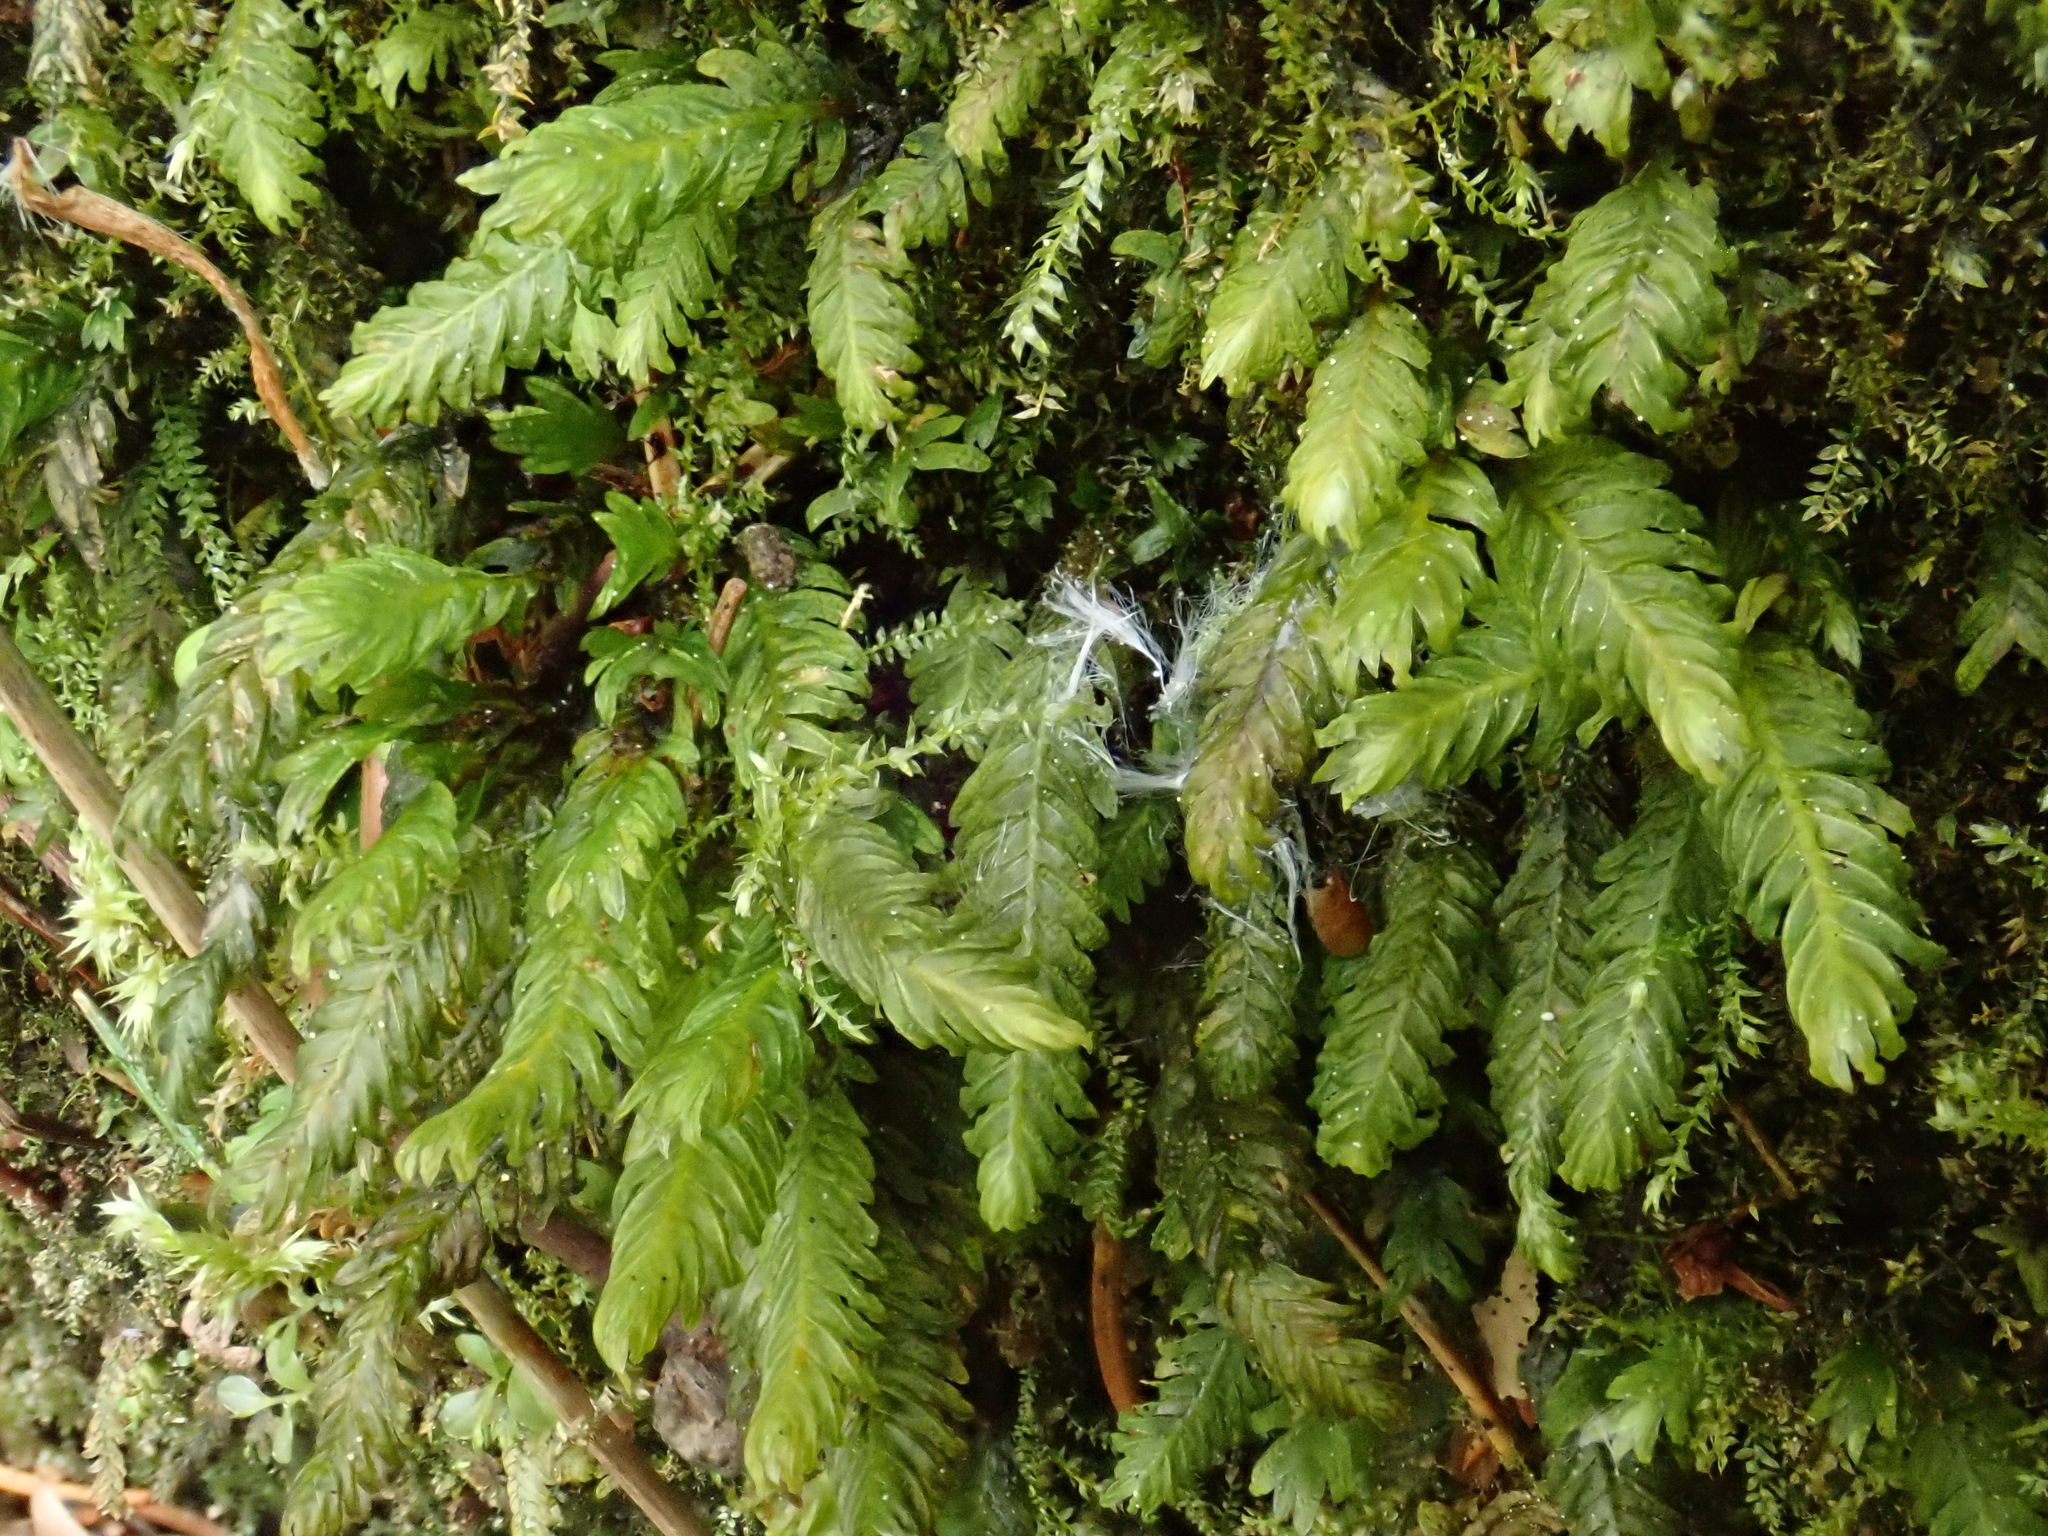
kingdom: Plantae
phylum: Bryophyta
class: Bryopsida
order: Dicranales
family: Fissidentaceae
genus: Fissidens
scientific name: Fissidens dubius
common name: Rock pocket moss
